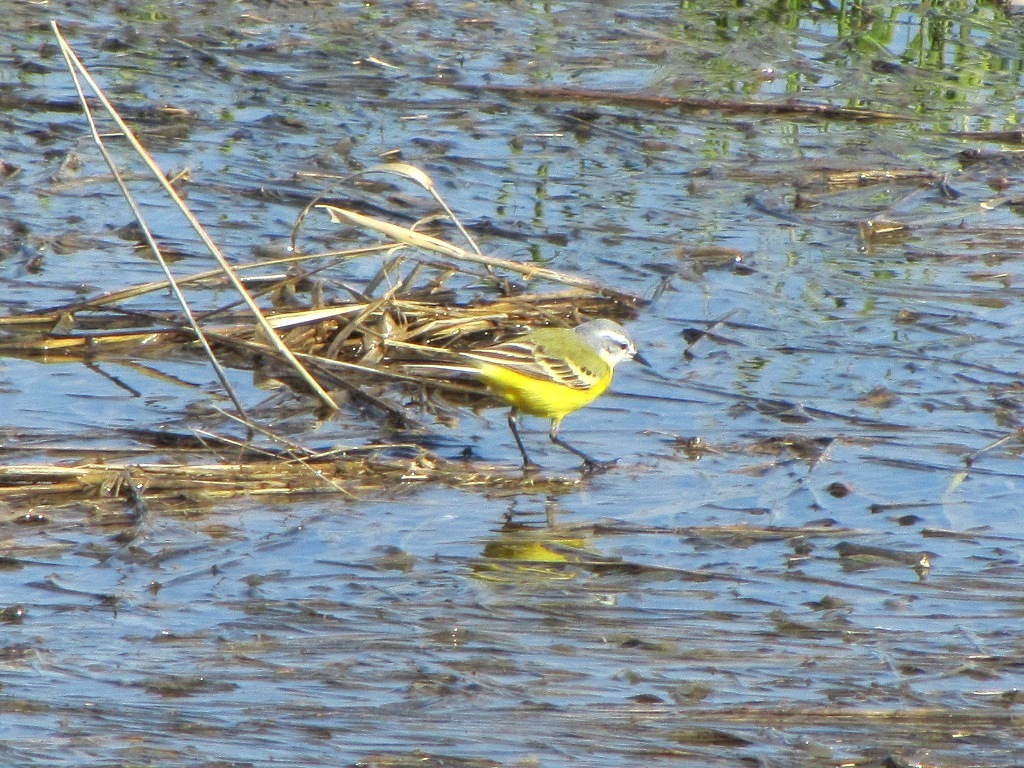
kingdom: Animalia
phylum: Chordata
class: Aves
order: Passeriformes
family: Motacillidae
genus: Motacilla
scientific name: Motacilla flava
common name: Western yellow wagtail
